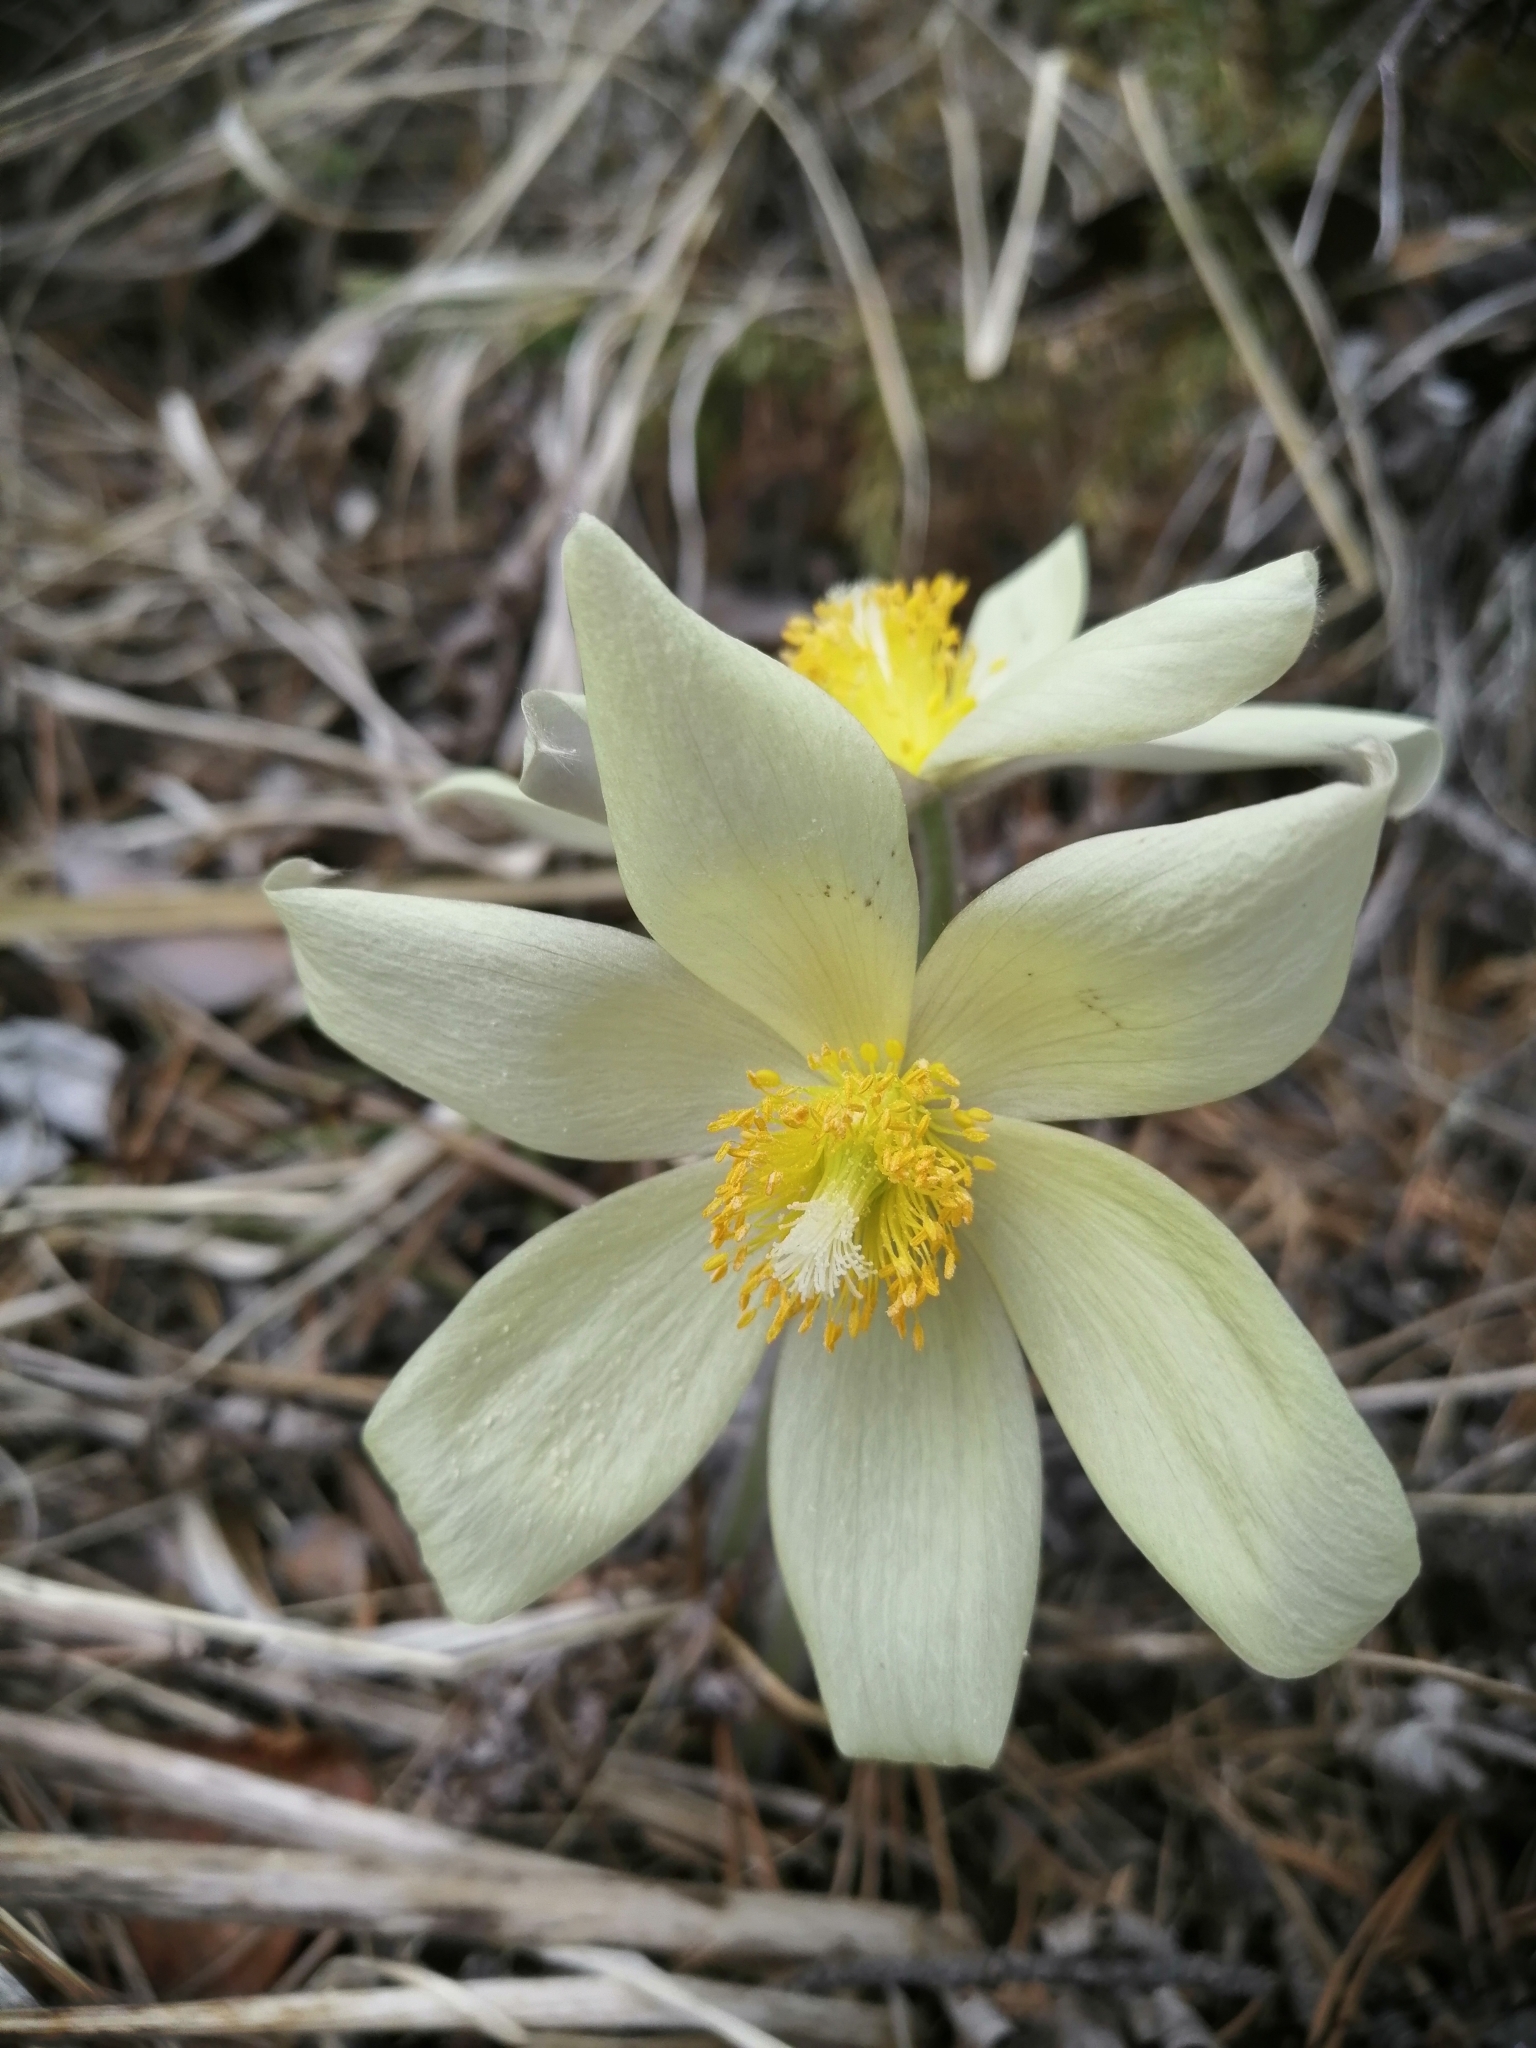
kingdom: Plantae
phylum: Tracheophyta
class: Magnoliopsida
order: Ranunculales
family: Ranunculaceae
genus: Pulsatilla
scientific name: Pulsatilla patens
